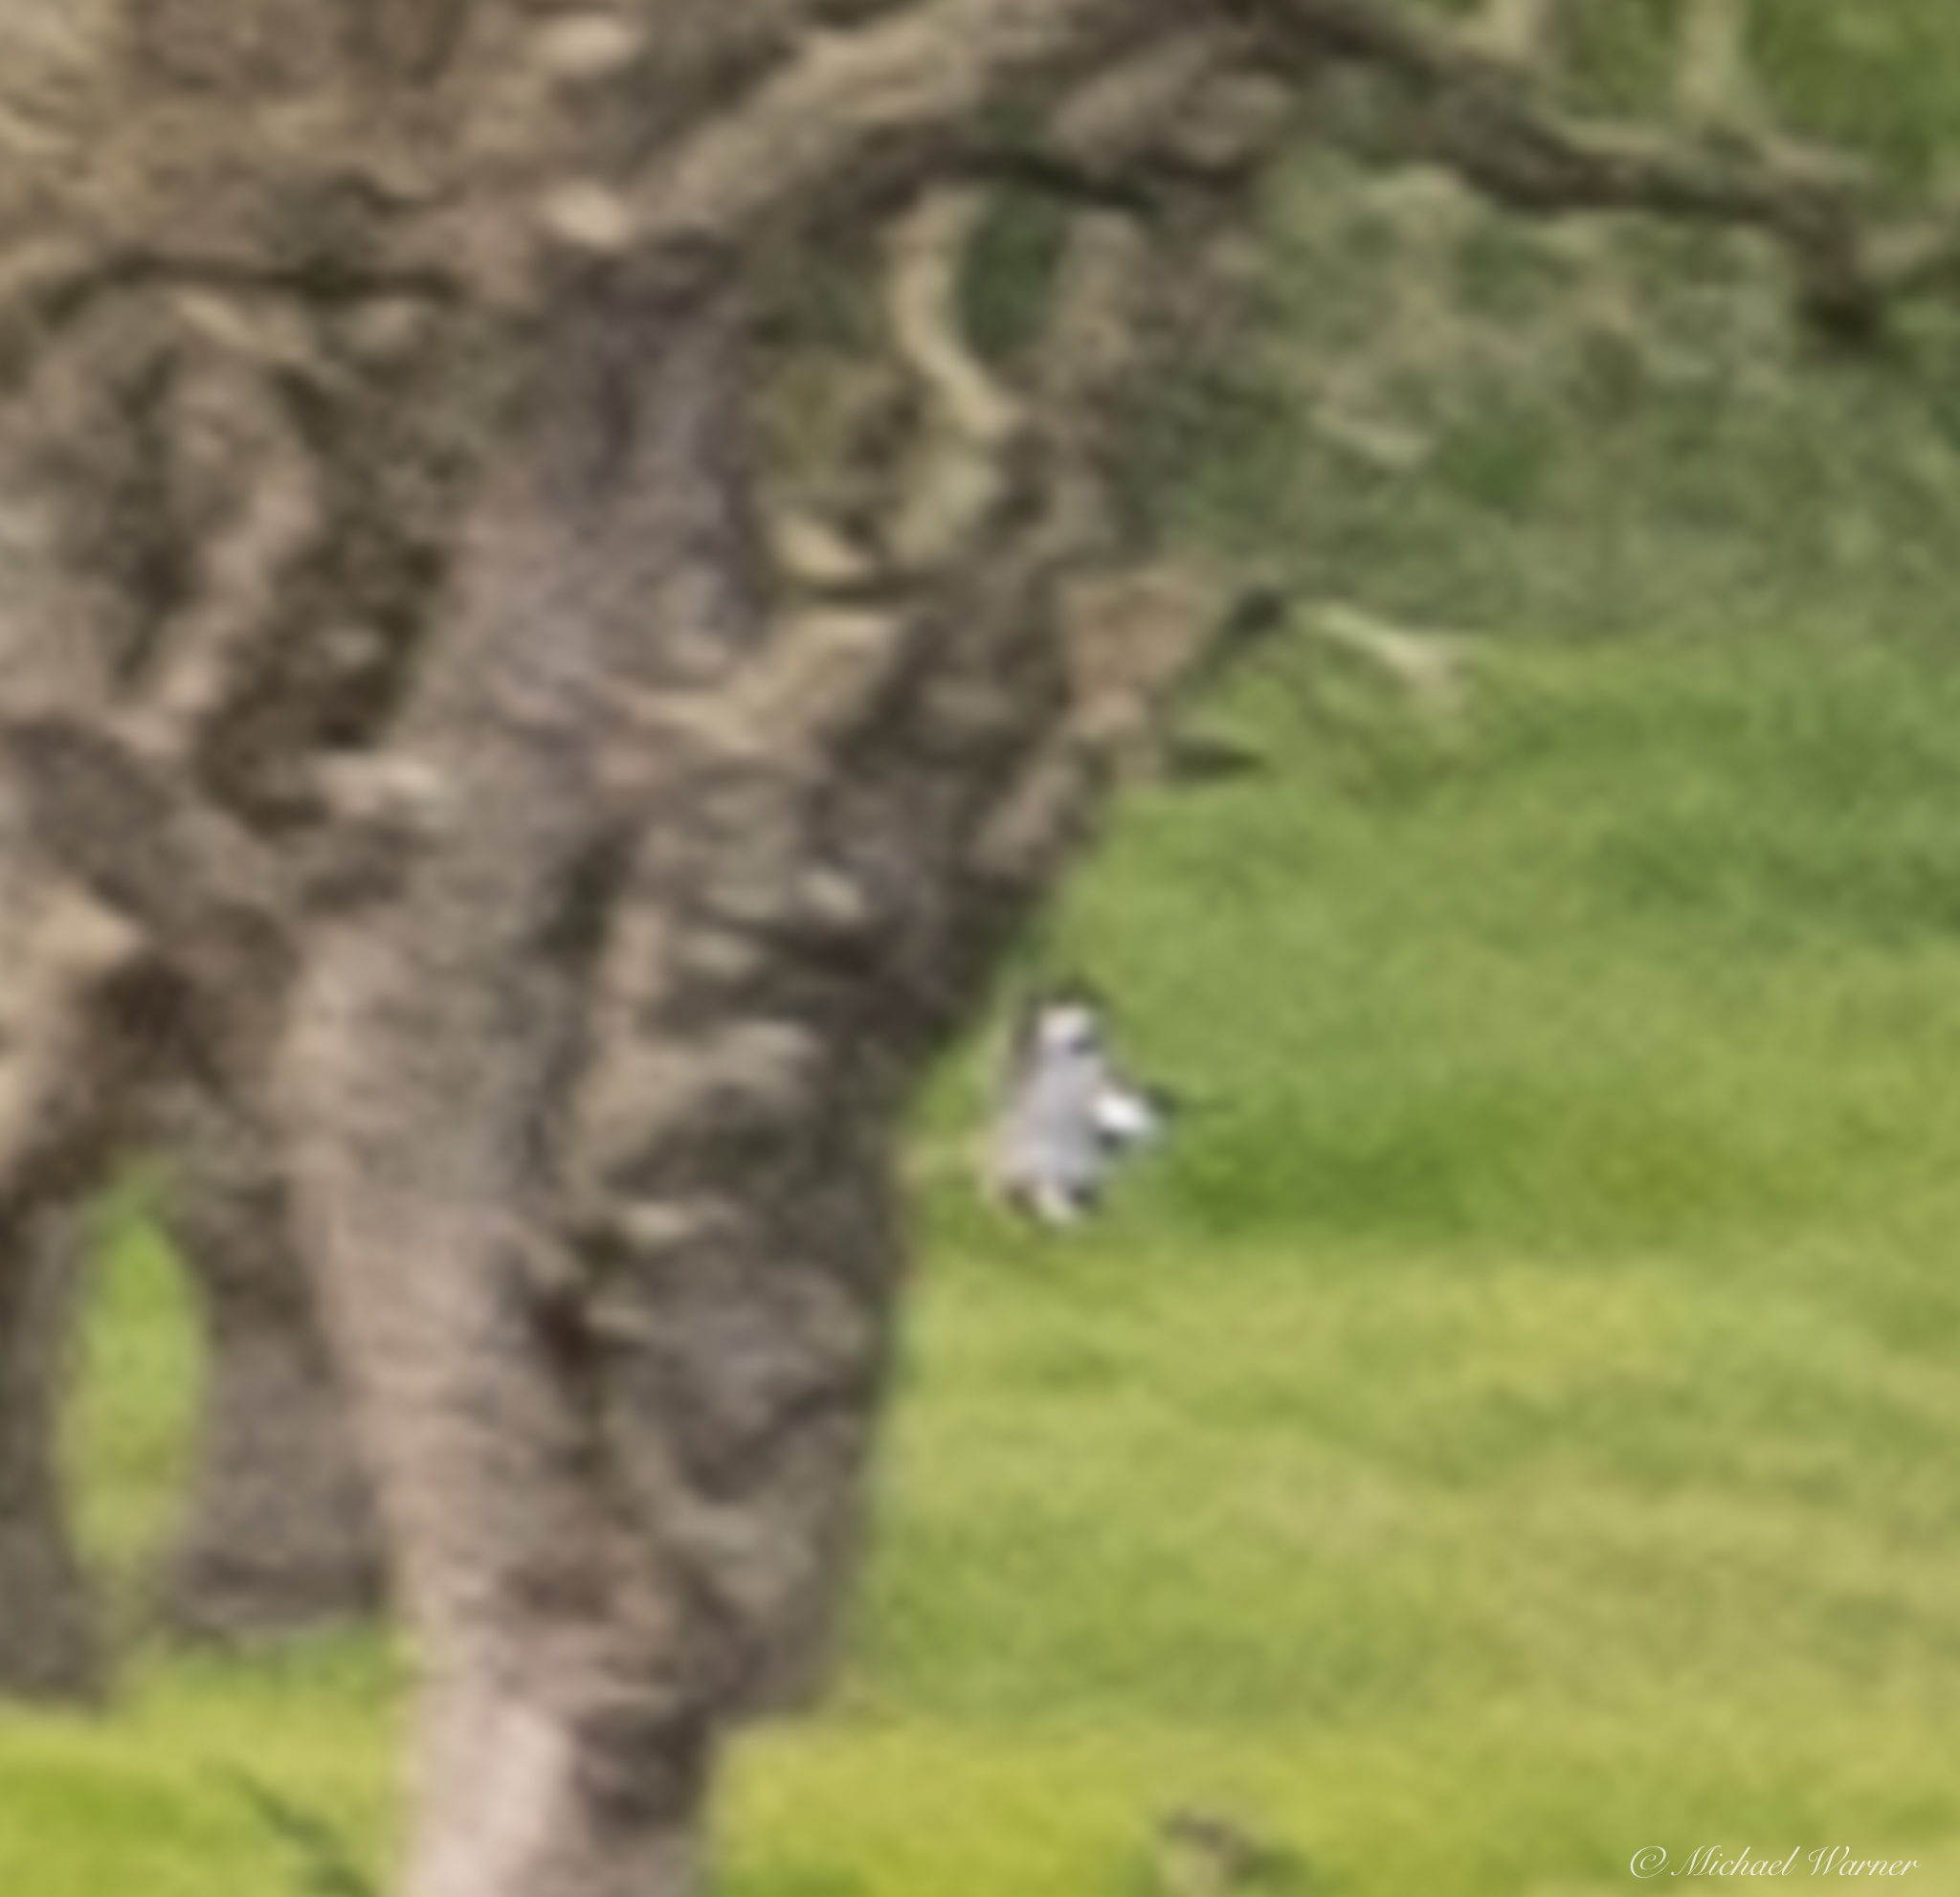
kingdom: Animalia
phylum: Chordata
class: Aves
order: Coraciiformes
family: Alcedinidae
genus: Megaceryle
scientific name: Megaceryle alcyon
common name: Belted kingfisher
